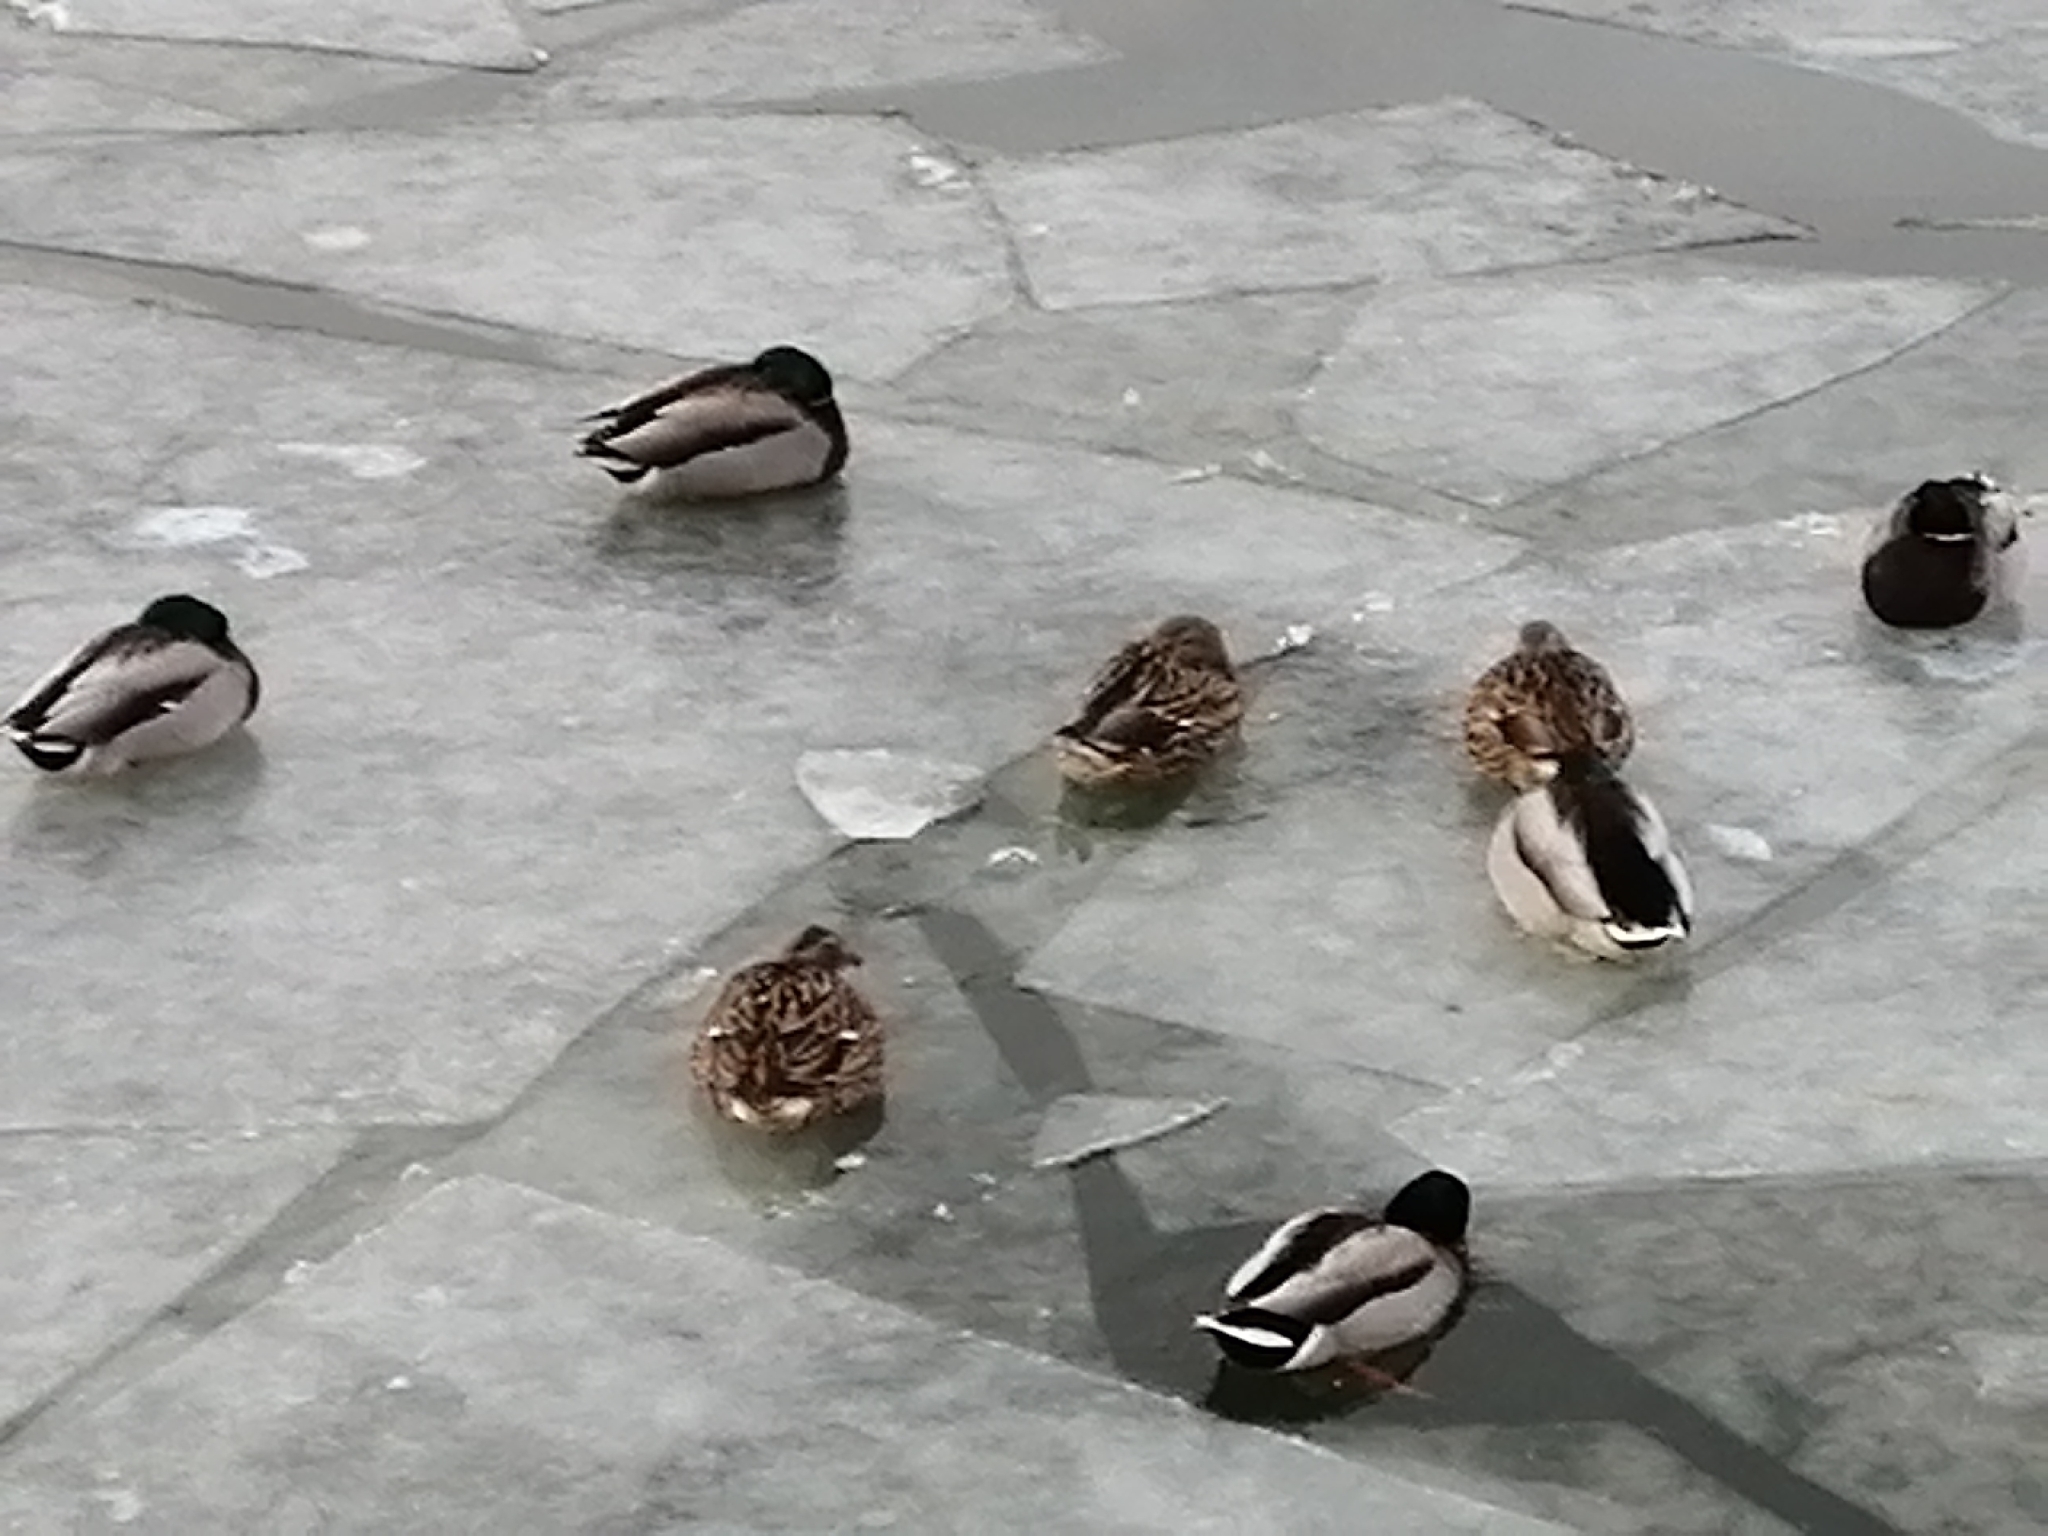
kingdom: Animalia
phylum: Chordata
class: Aves
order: Anseriformes
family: Anatidae
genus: Anas
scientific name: Anas platyrhynchos
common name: Mallard
